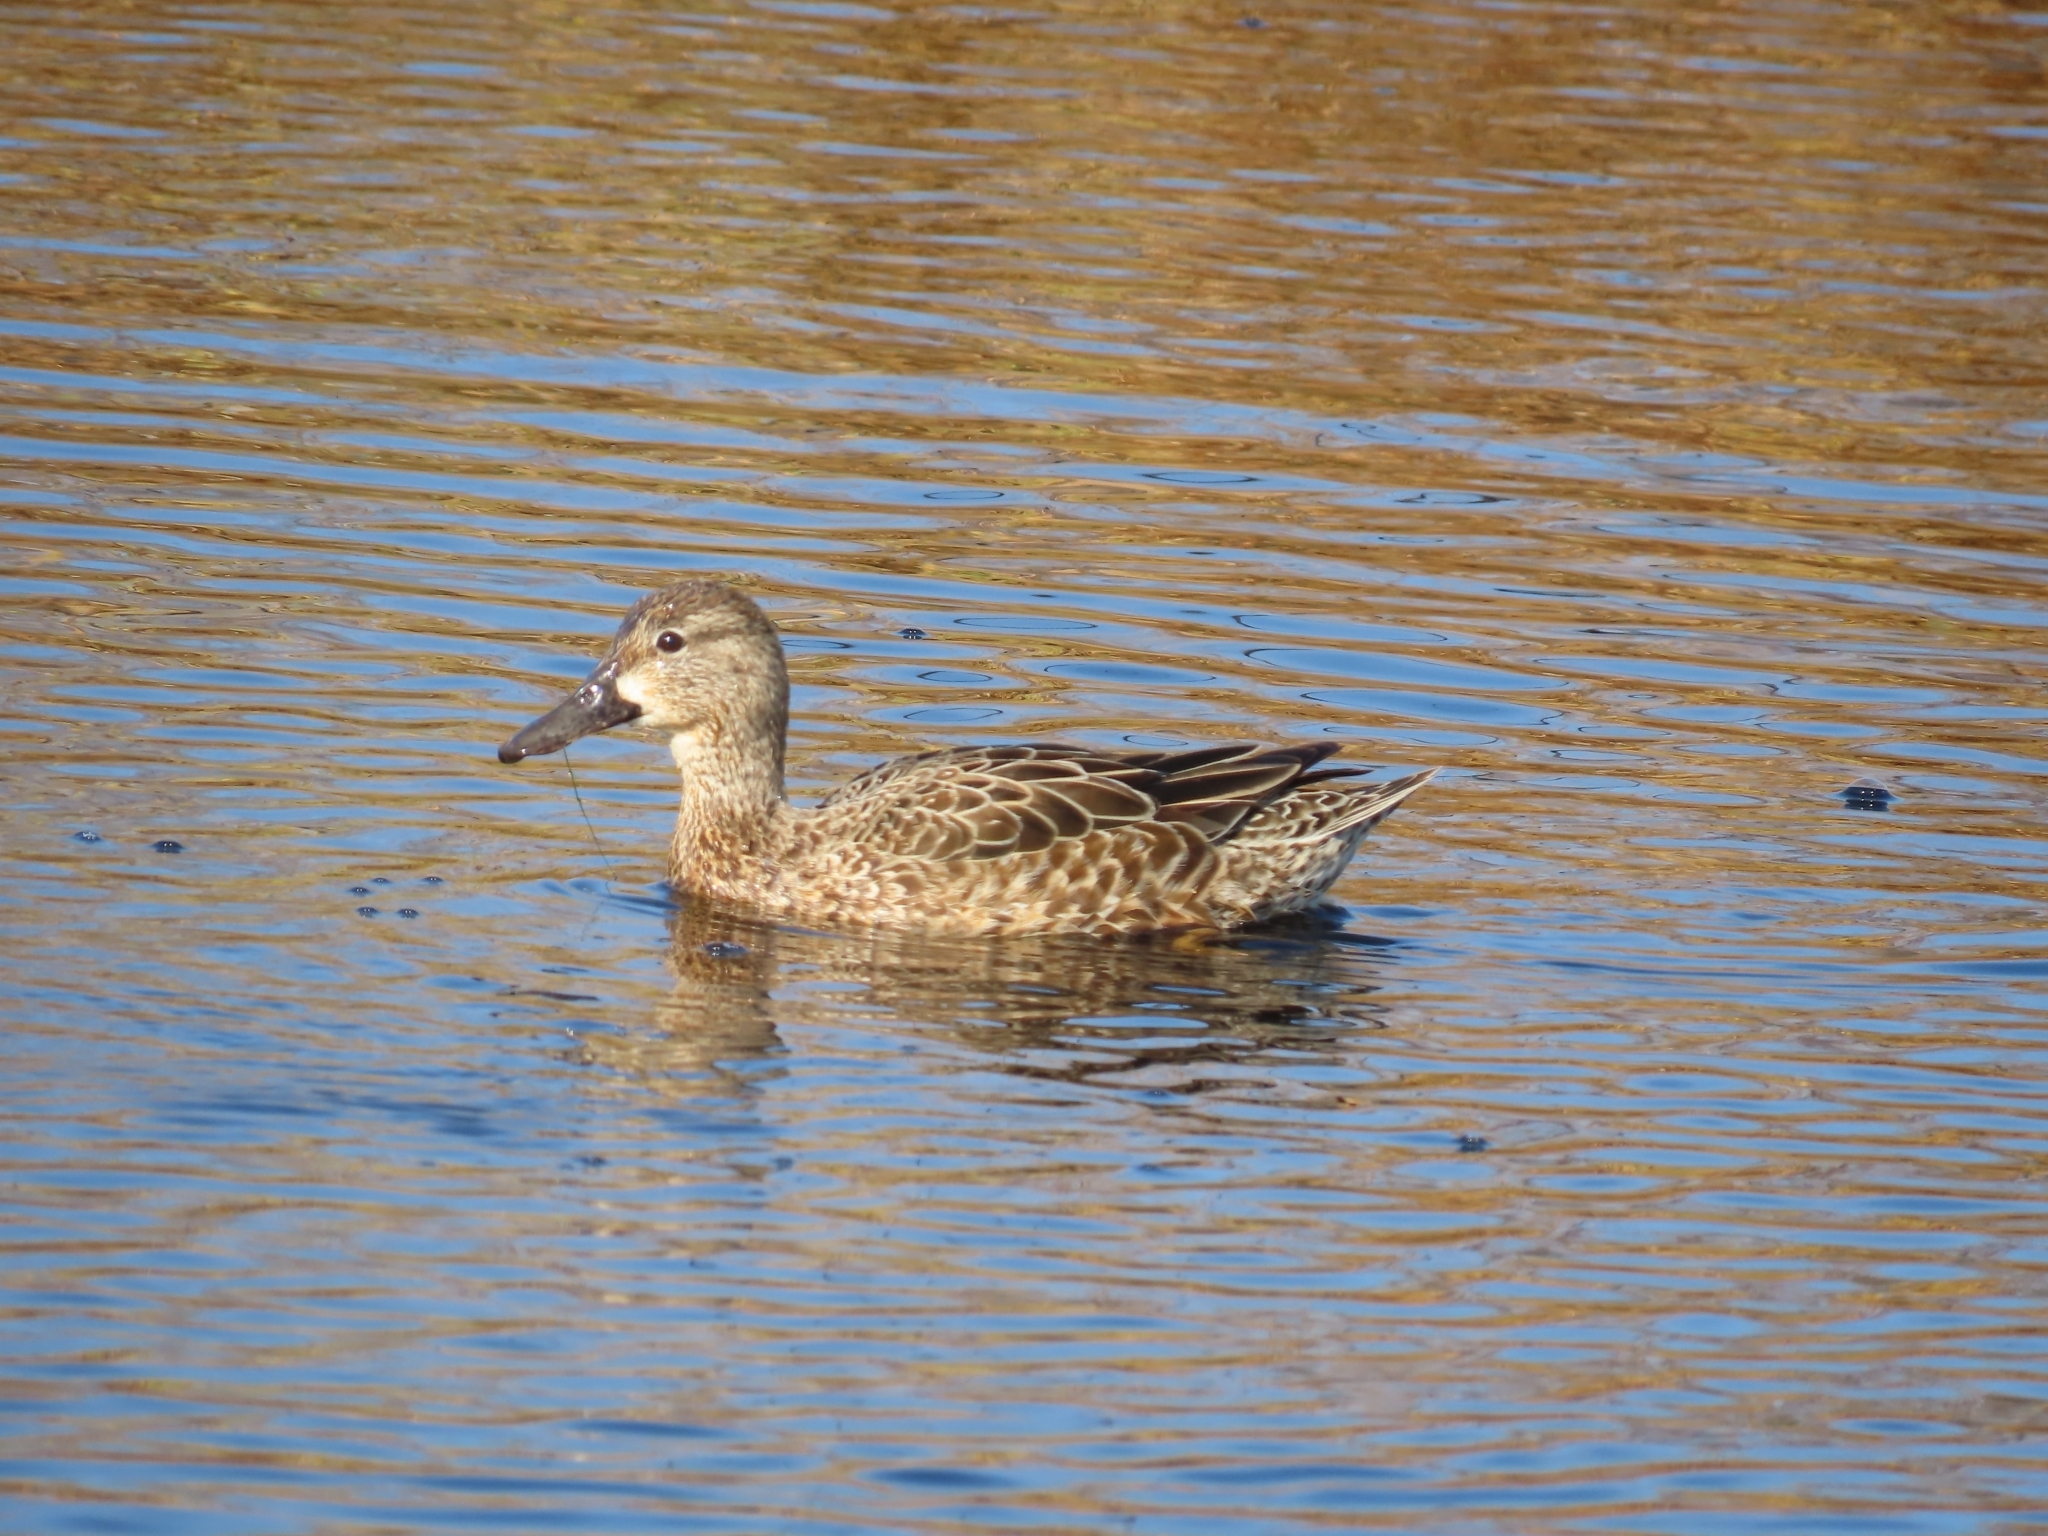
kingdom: Animalia
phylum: Chordata
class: Aves
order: Anseriformes
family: Anatidae
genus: Spatula
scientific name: Spatula discors
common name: Blue-winged teal
